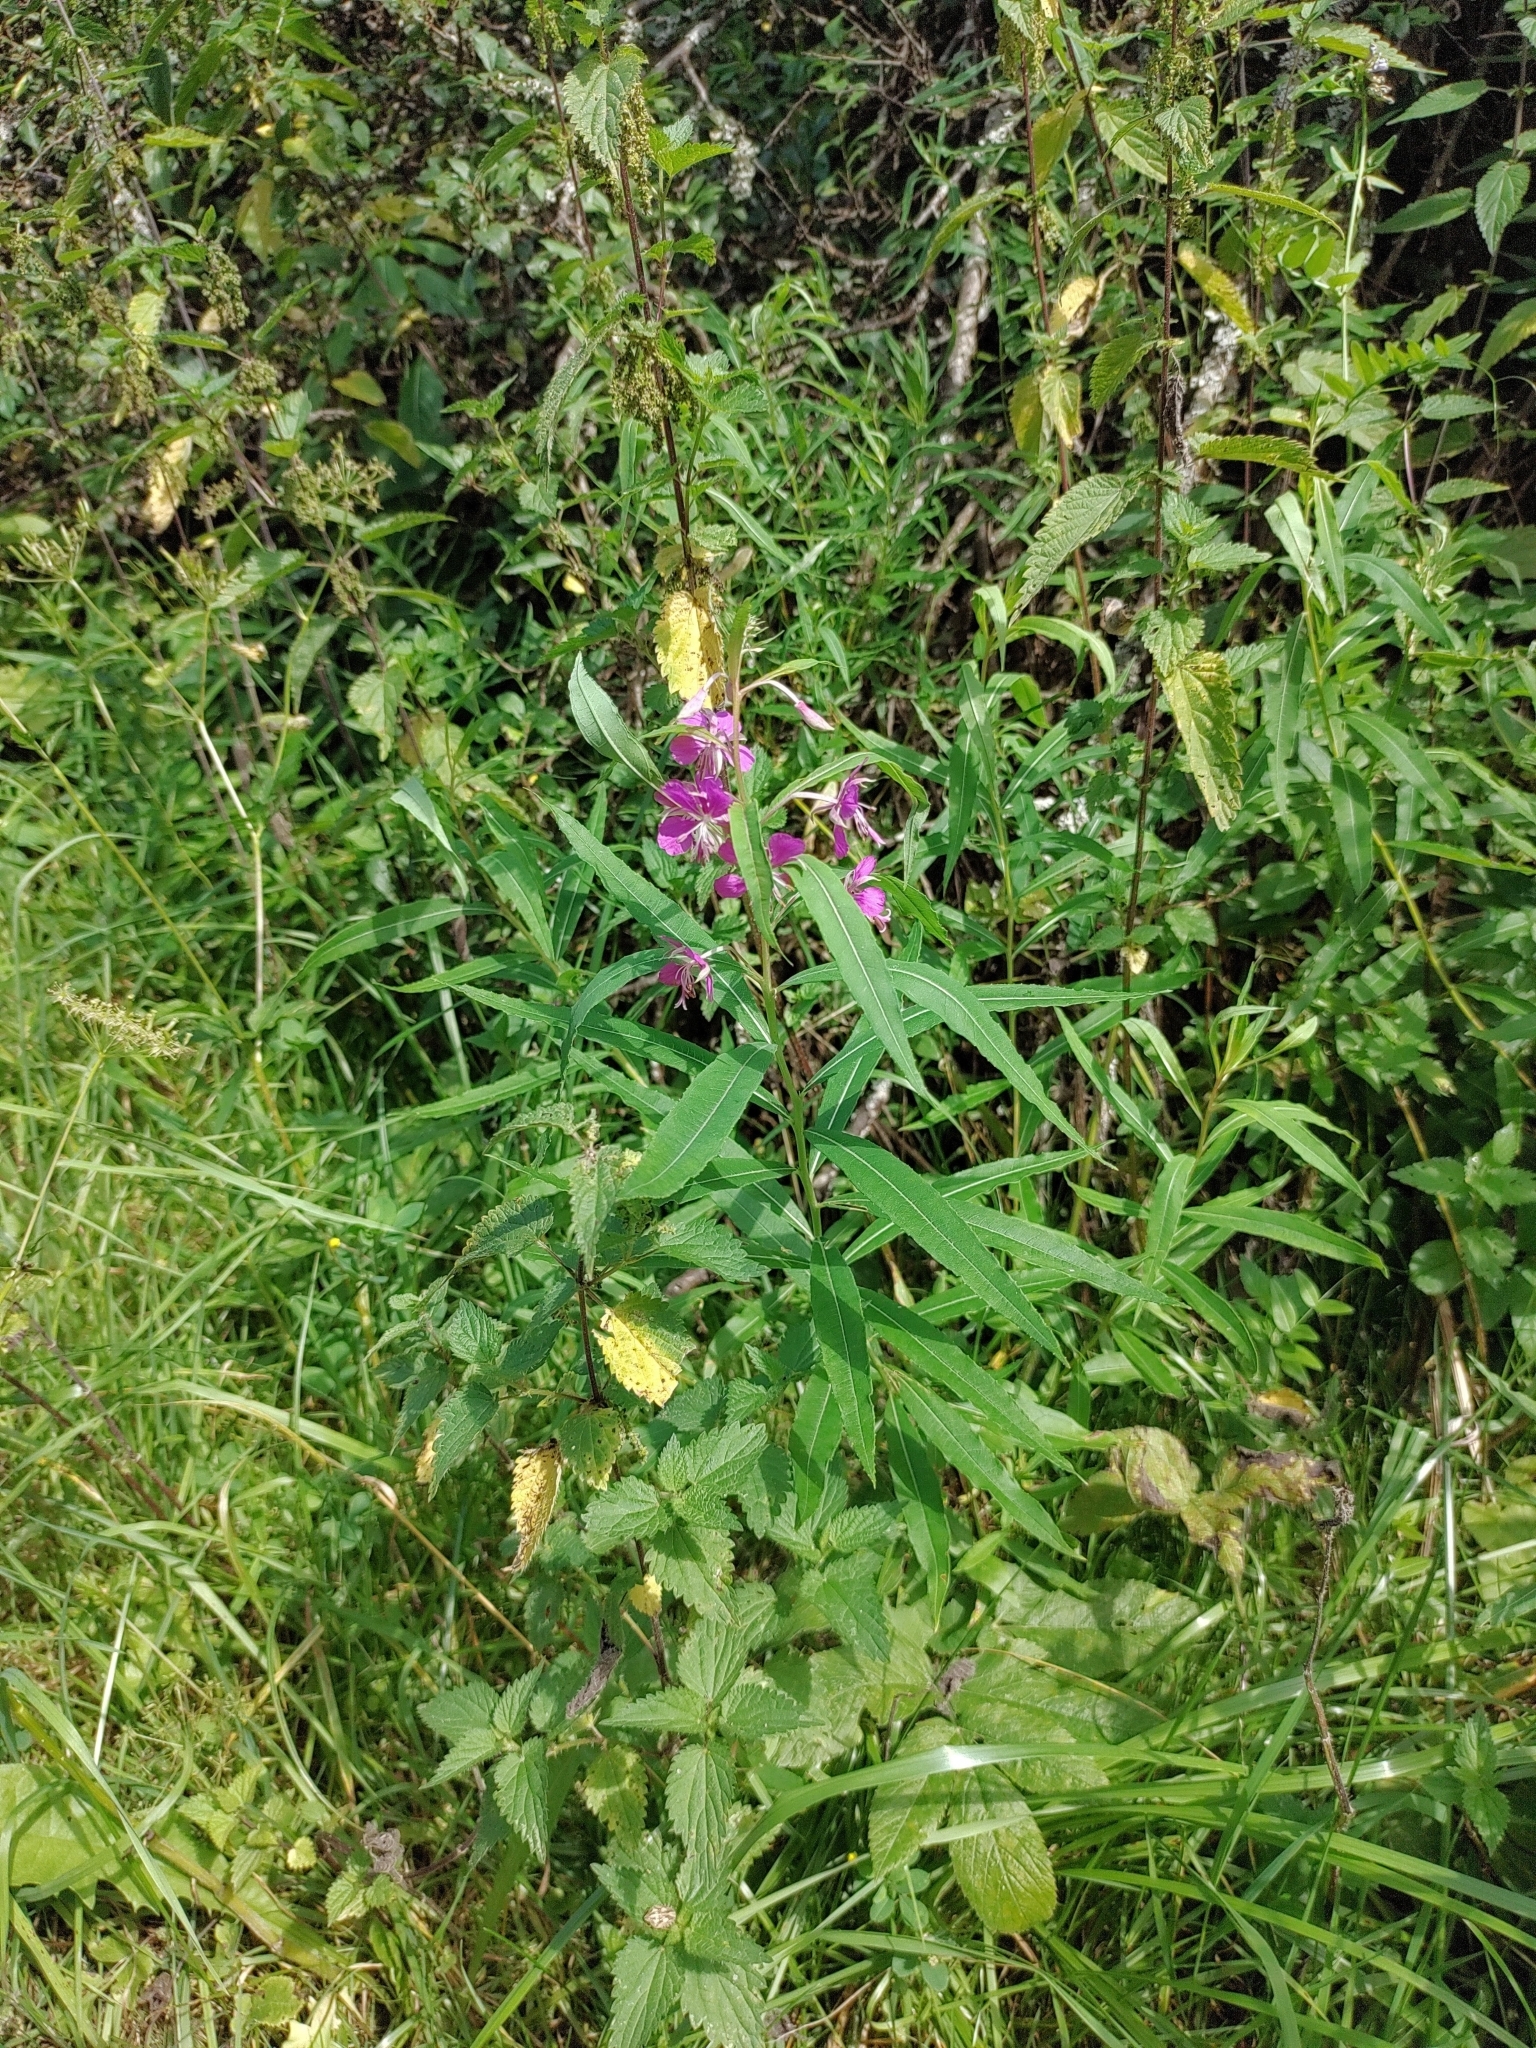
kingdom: Plantae
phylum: Tracheophyta
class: Magnoliopsida
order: Myrtales
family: Onagraceae
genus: Chamaenerion
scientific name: Chamaenerion angustifolium
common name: Fireweed
